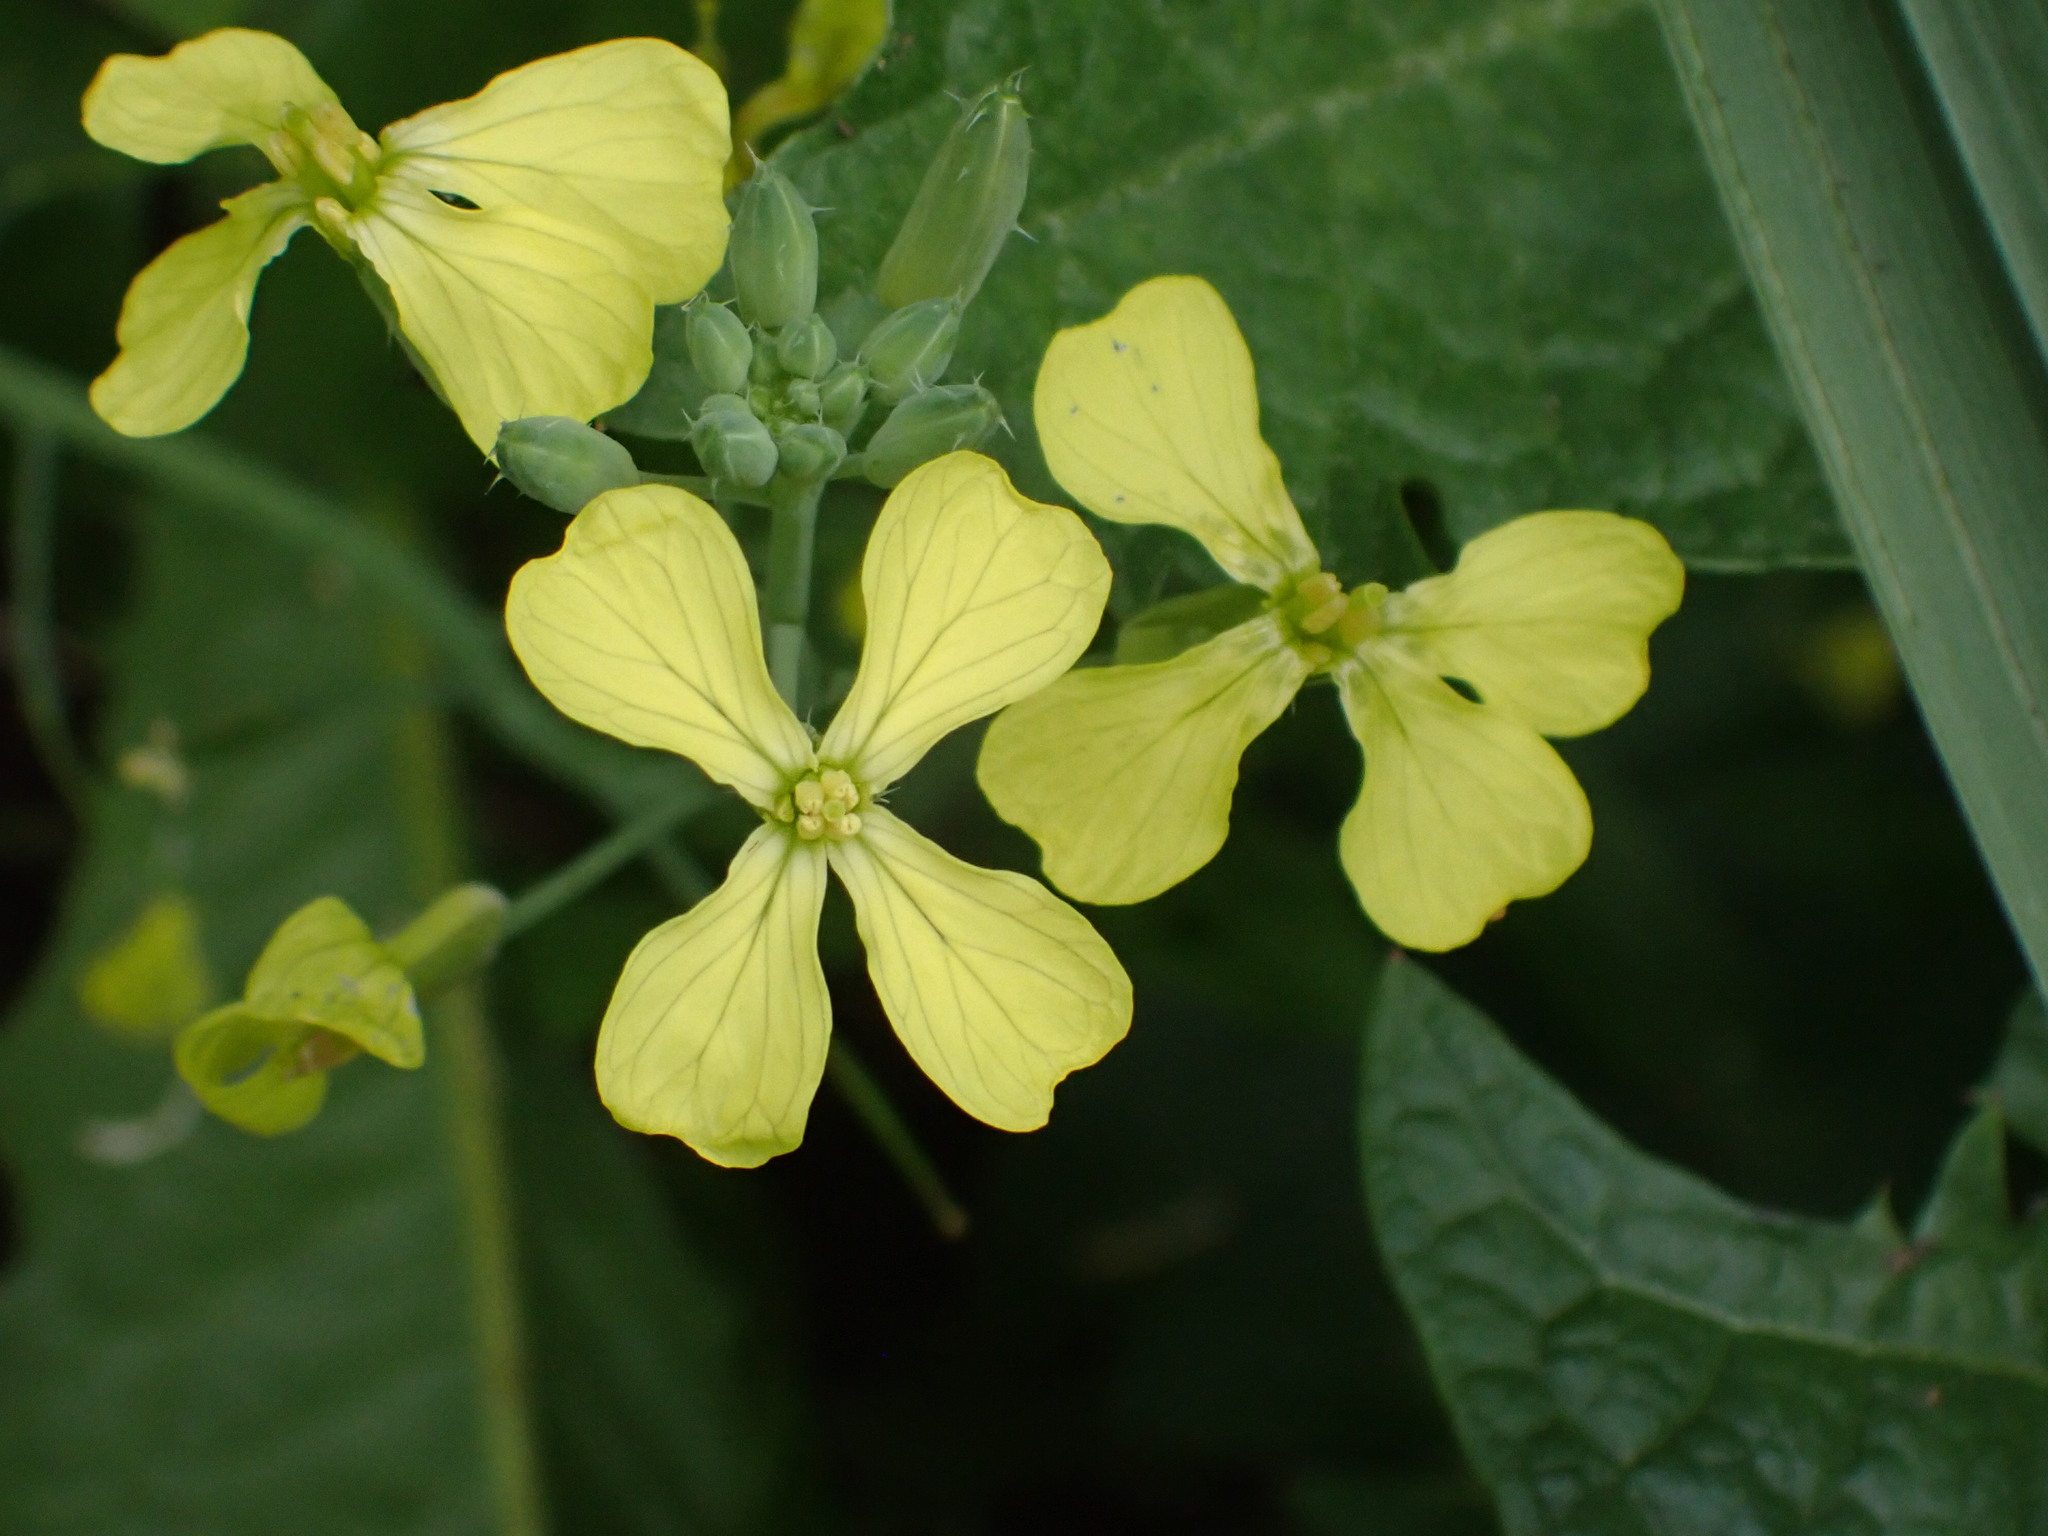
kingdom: Plantae
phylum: Tracheophyta
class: Magnoliopsida
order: Brassicales
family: Brassicaceae
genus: Raphanus
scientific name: Raphanus raphanistrum
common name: Wild radish
